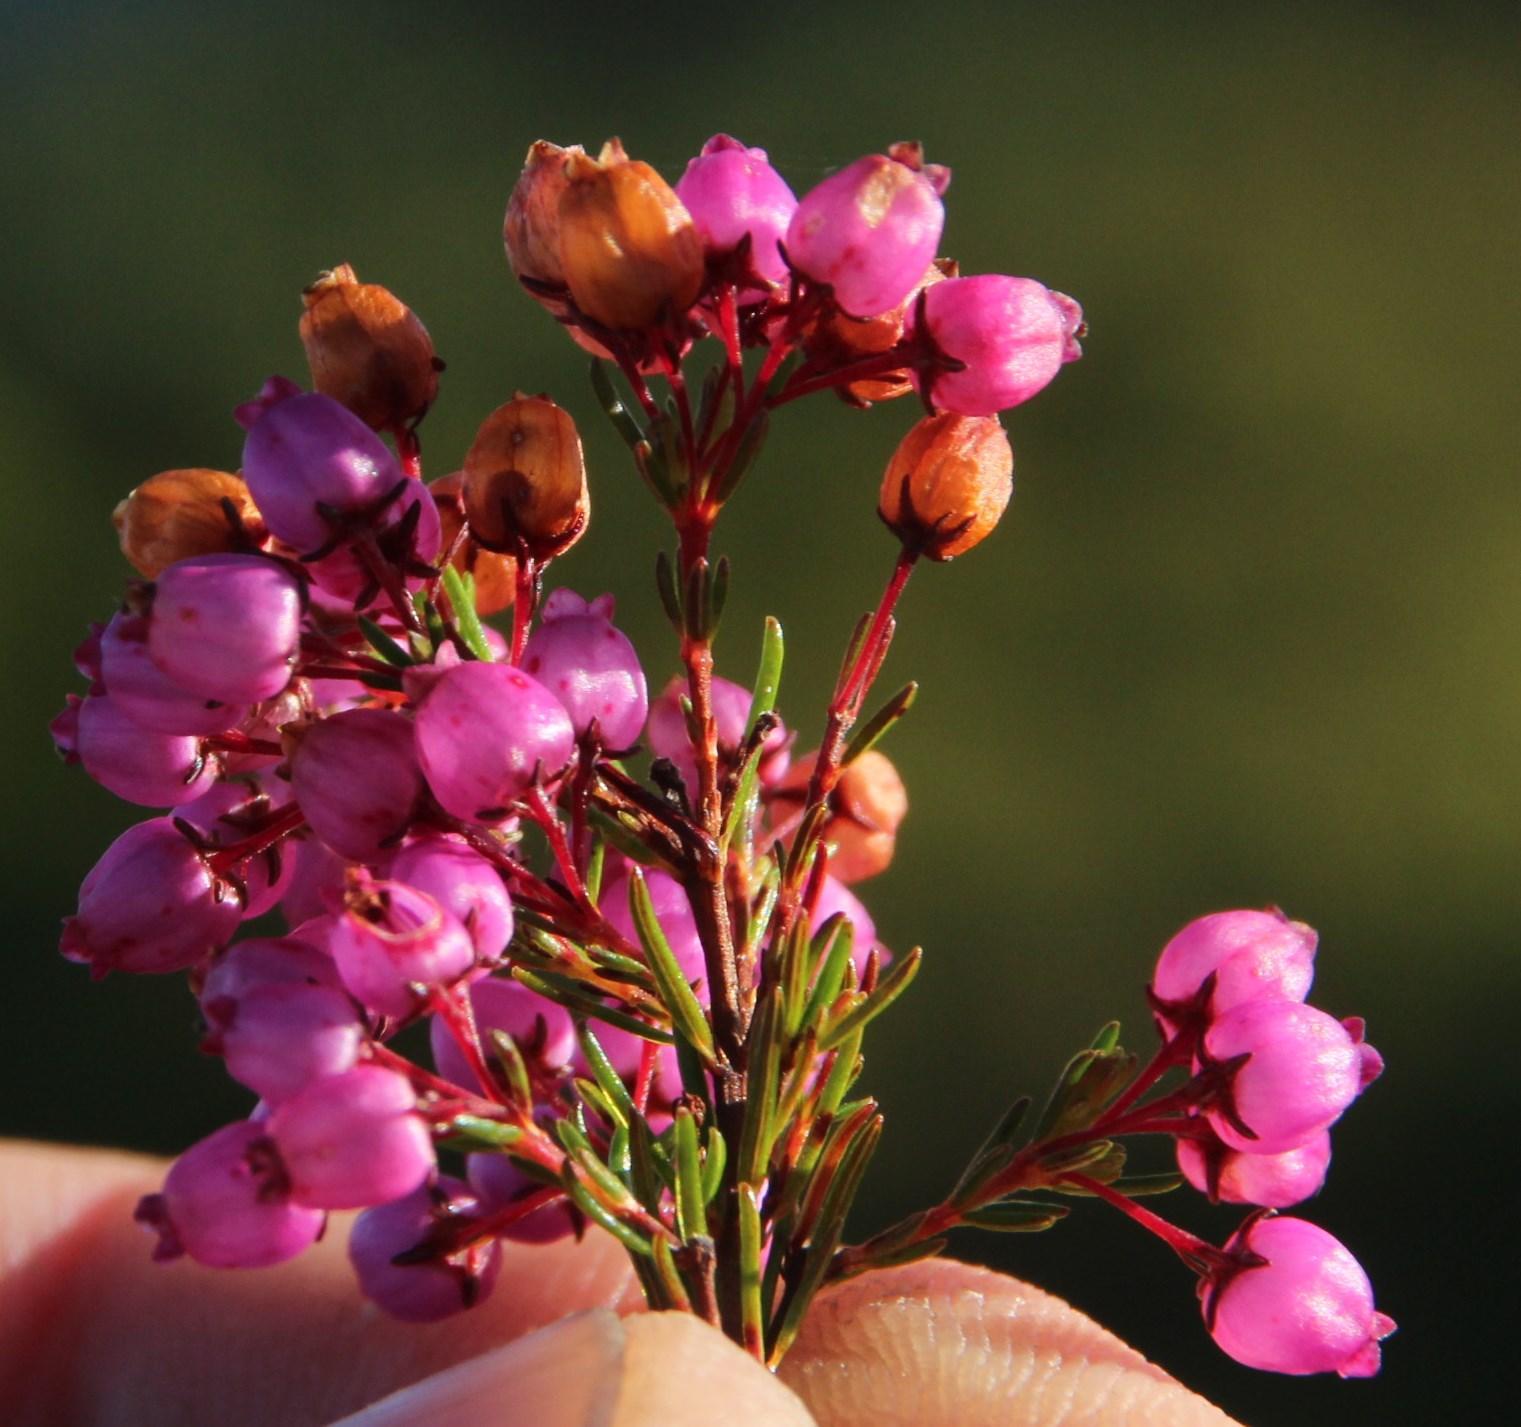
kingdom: Plantae
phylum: Tracheophyta
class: Magnoliopsida
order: Ericales
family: Ericaceae
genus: Erica
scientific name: Erica multumbellifera
